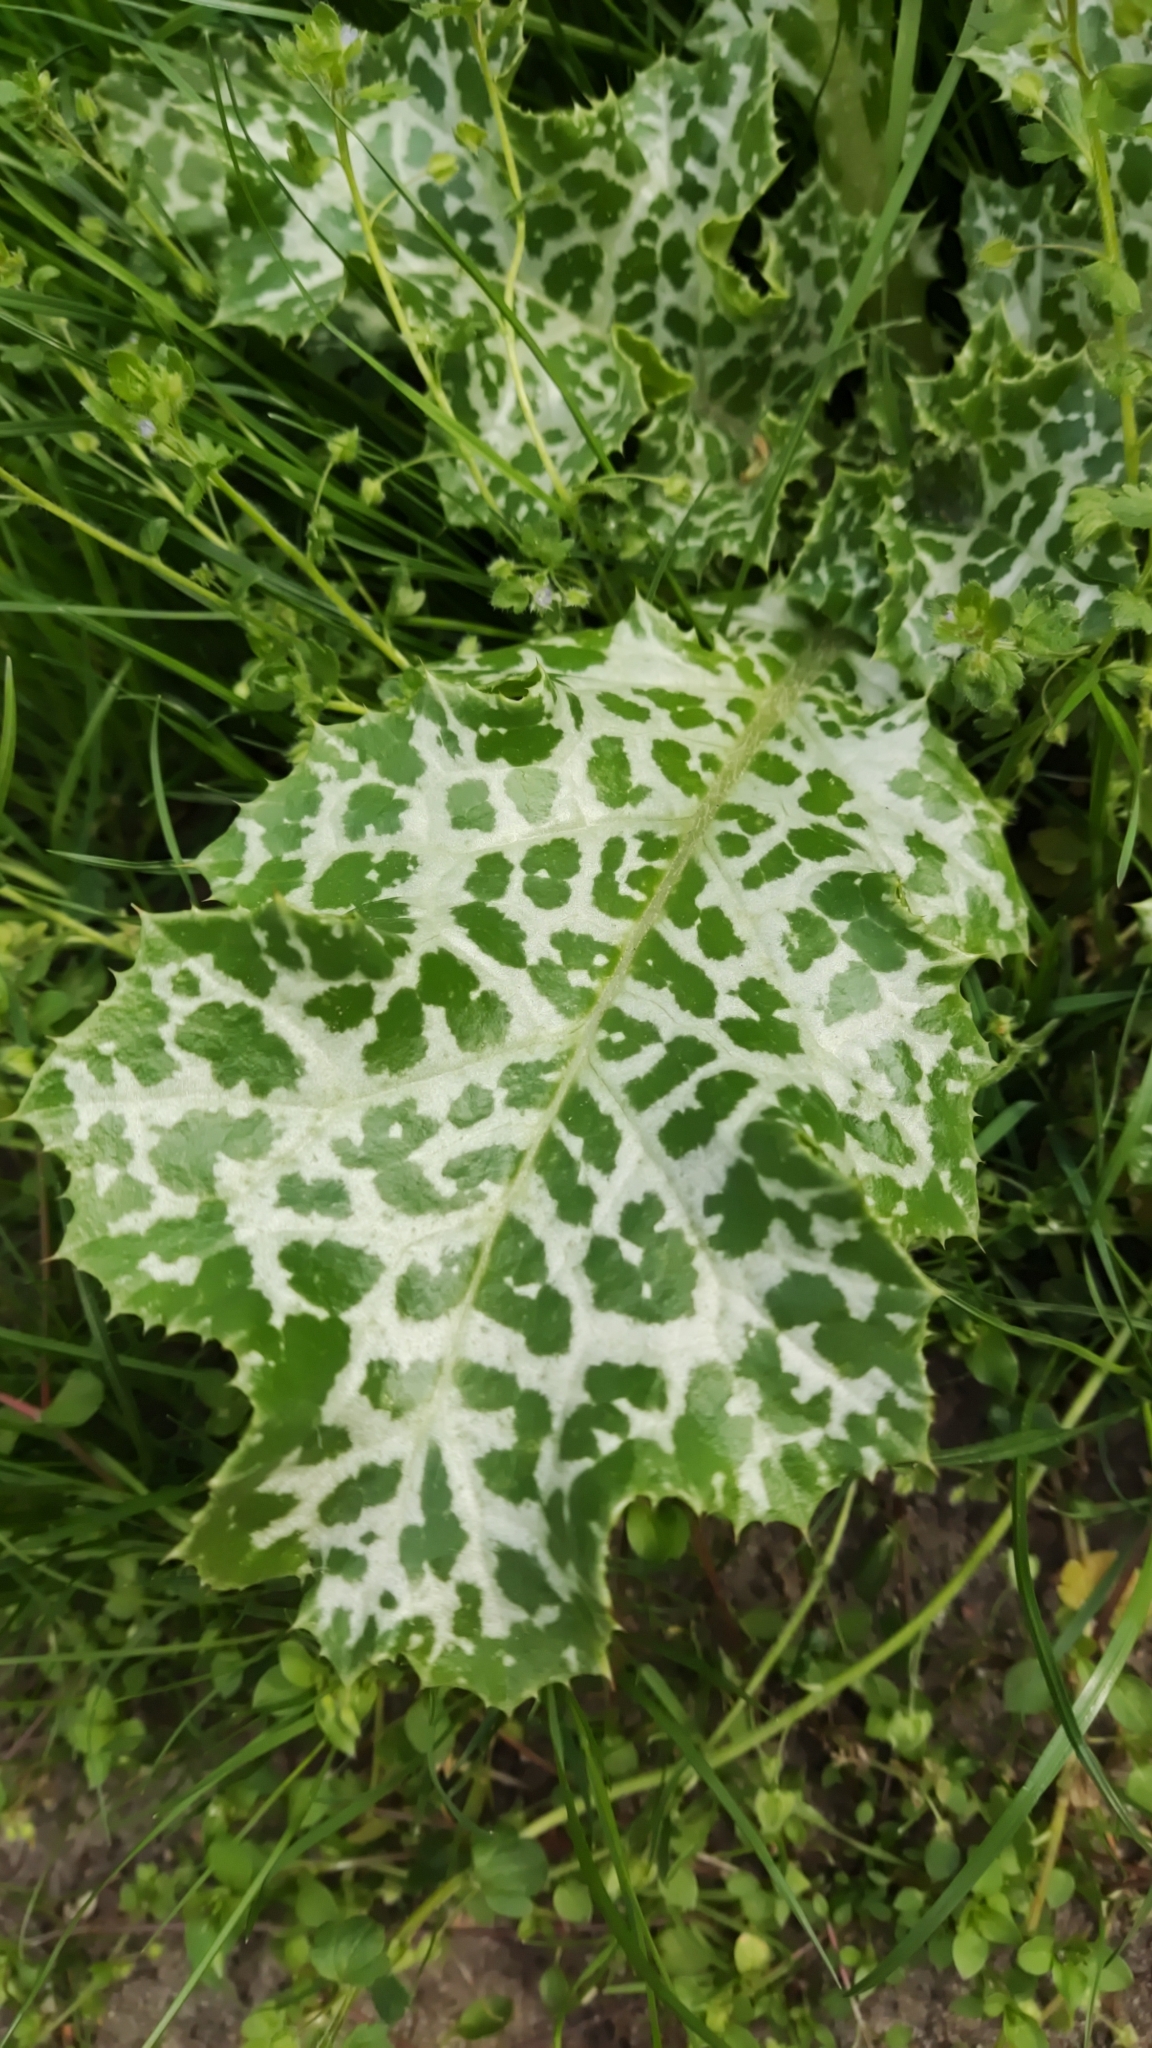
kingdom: Plantae
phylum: Tracheophyta
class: Magnoliopsida
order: Asterales
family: Asteraceae
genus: Silybum
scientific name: Silybum marianum
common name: Milk thistle
